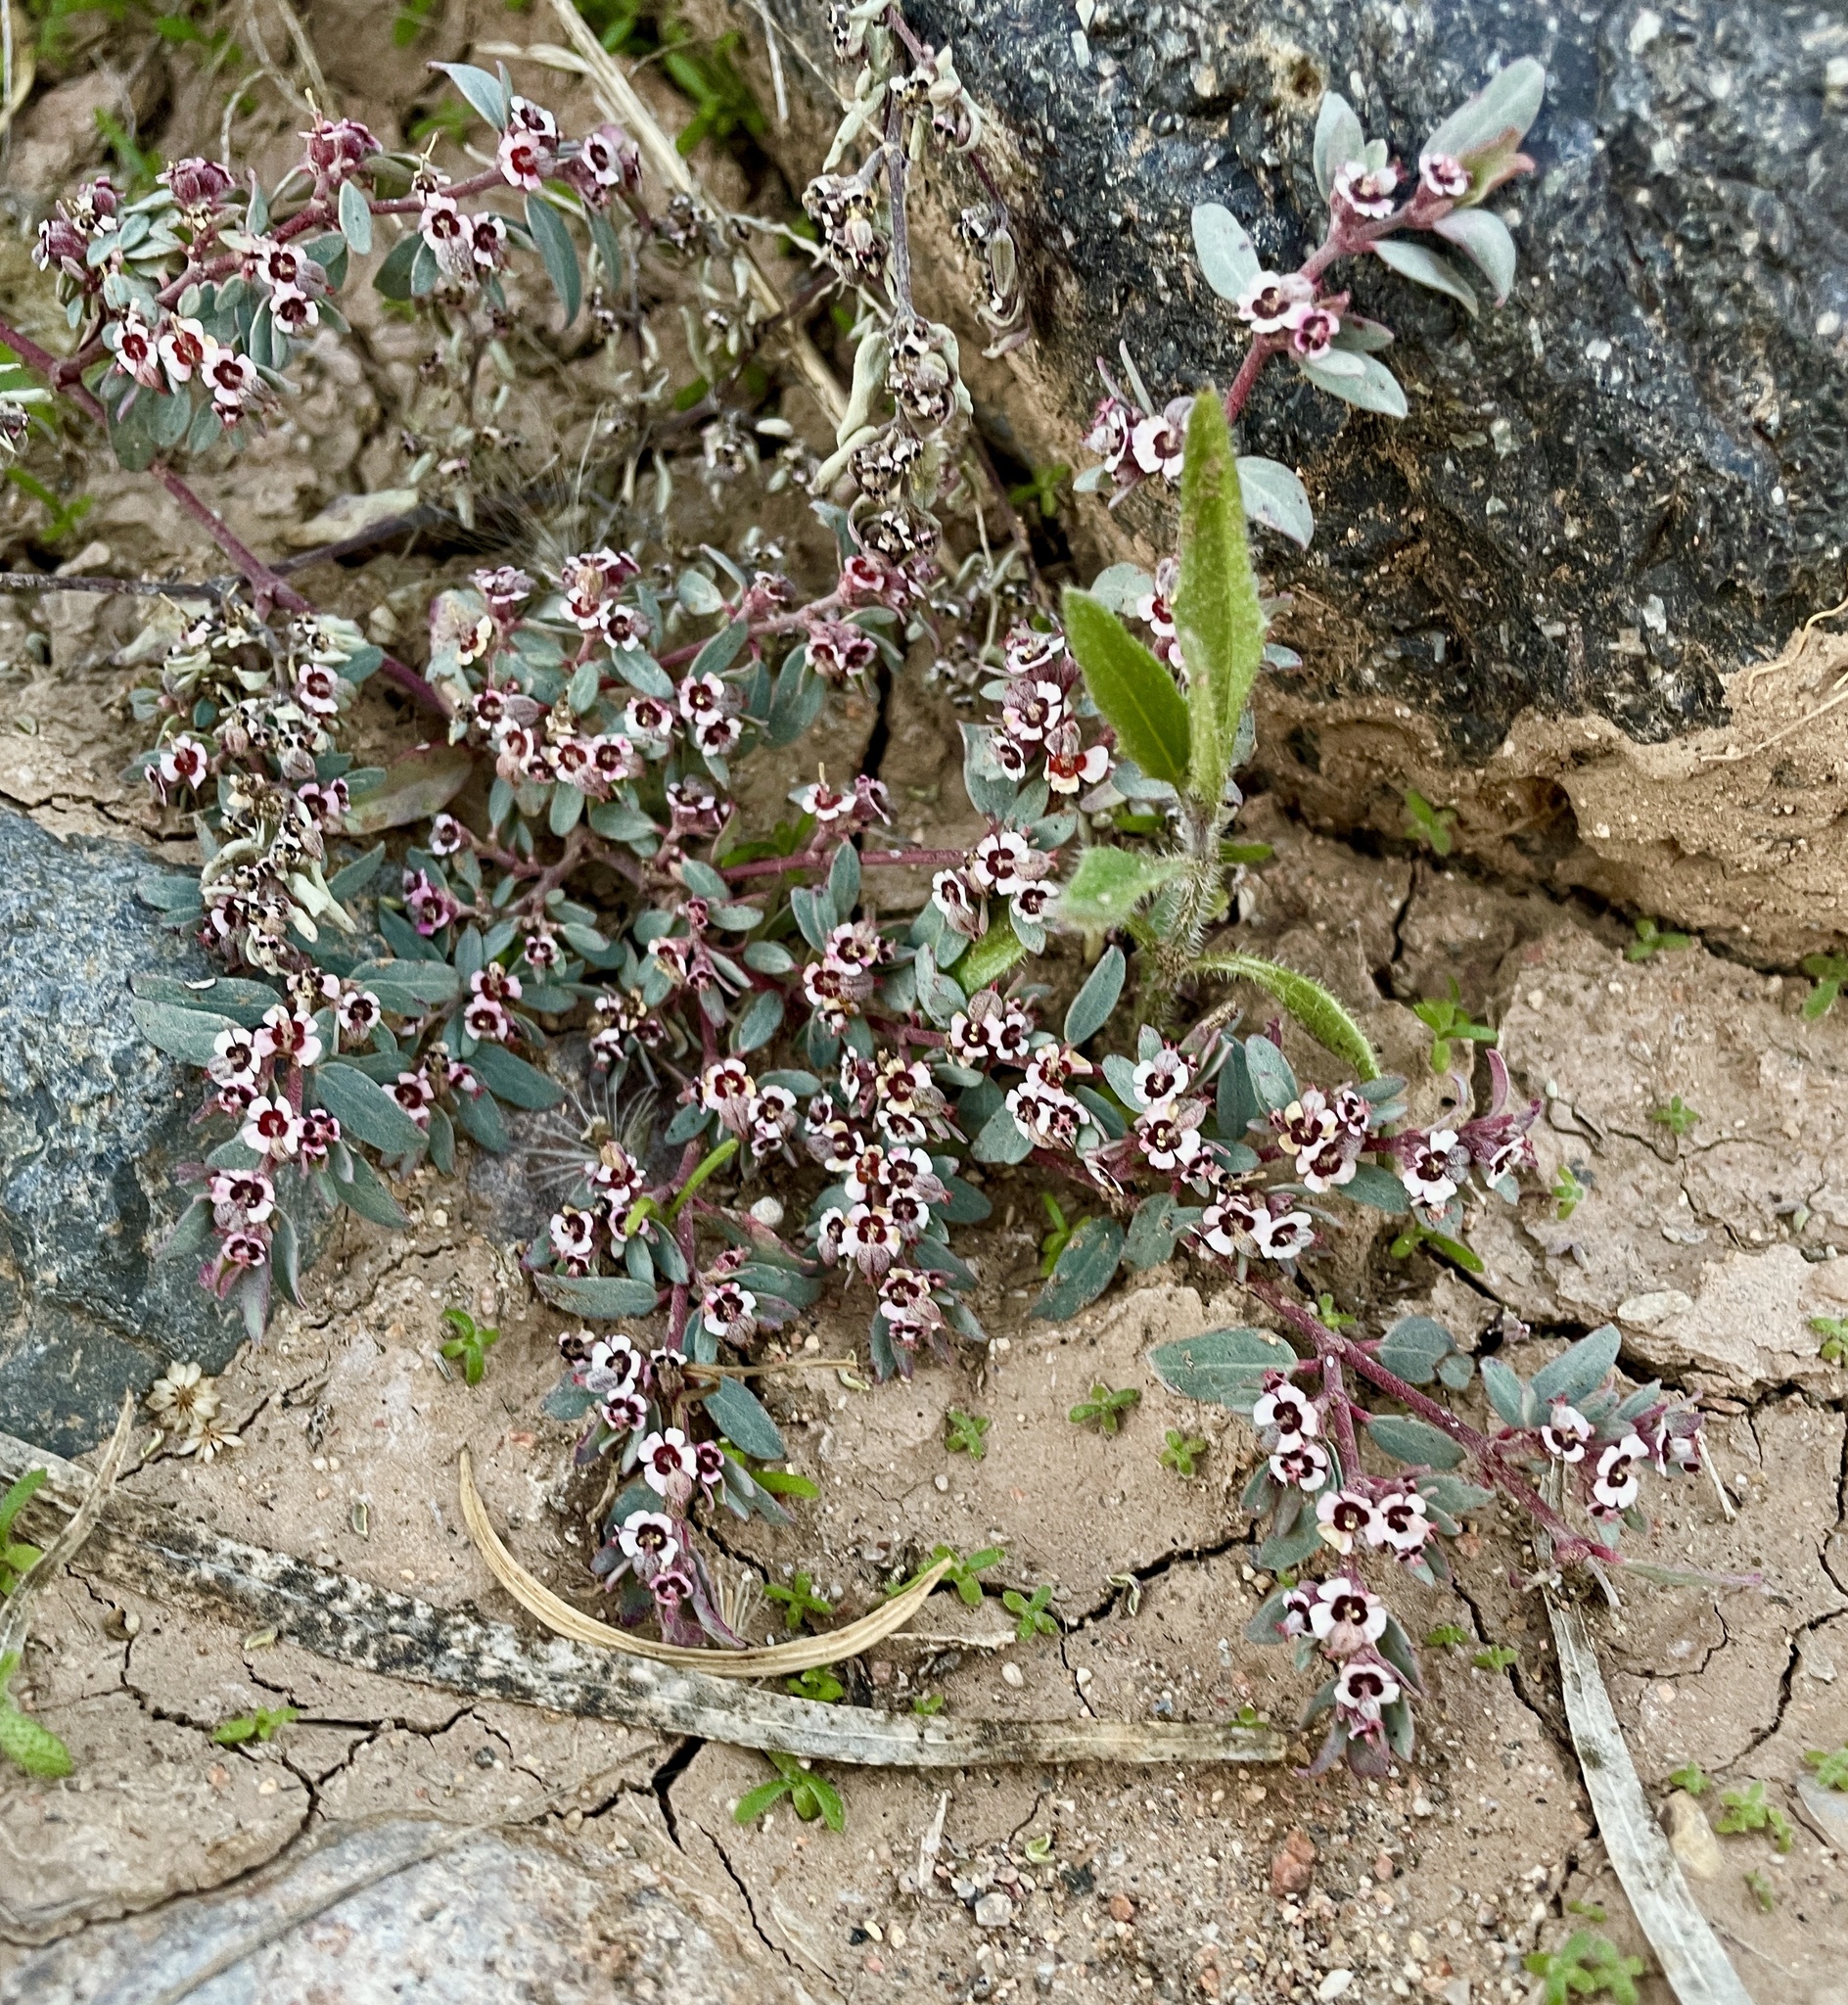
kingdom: Plantae
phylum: Tracheophyta
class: Magnoliopsida
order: Malpighiales
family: Euphorbiaceae
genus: Euphorbia
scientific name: Euphorbia pediculifera
